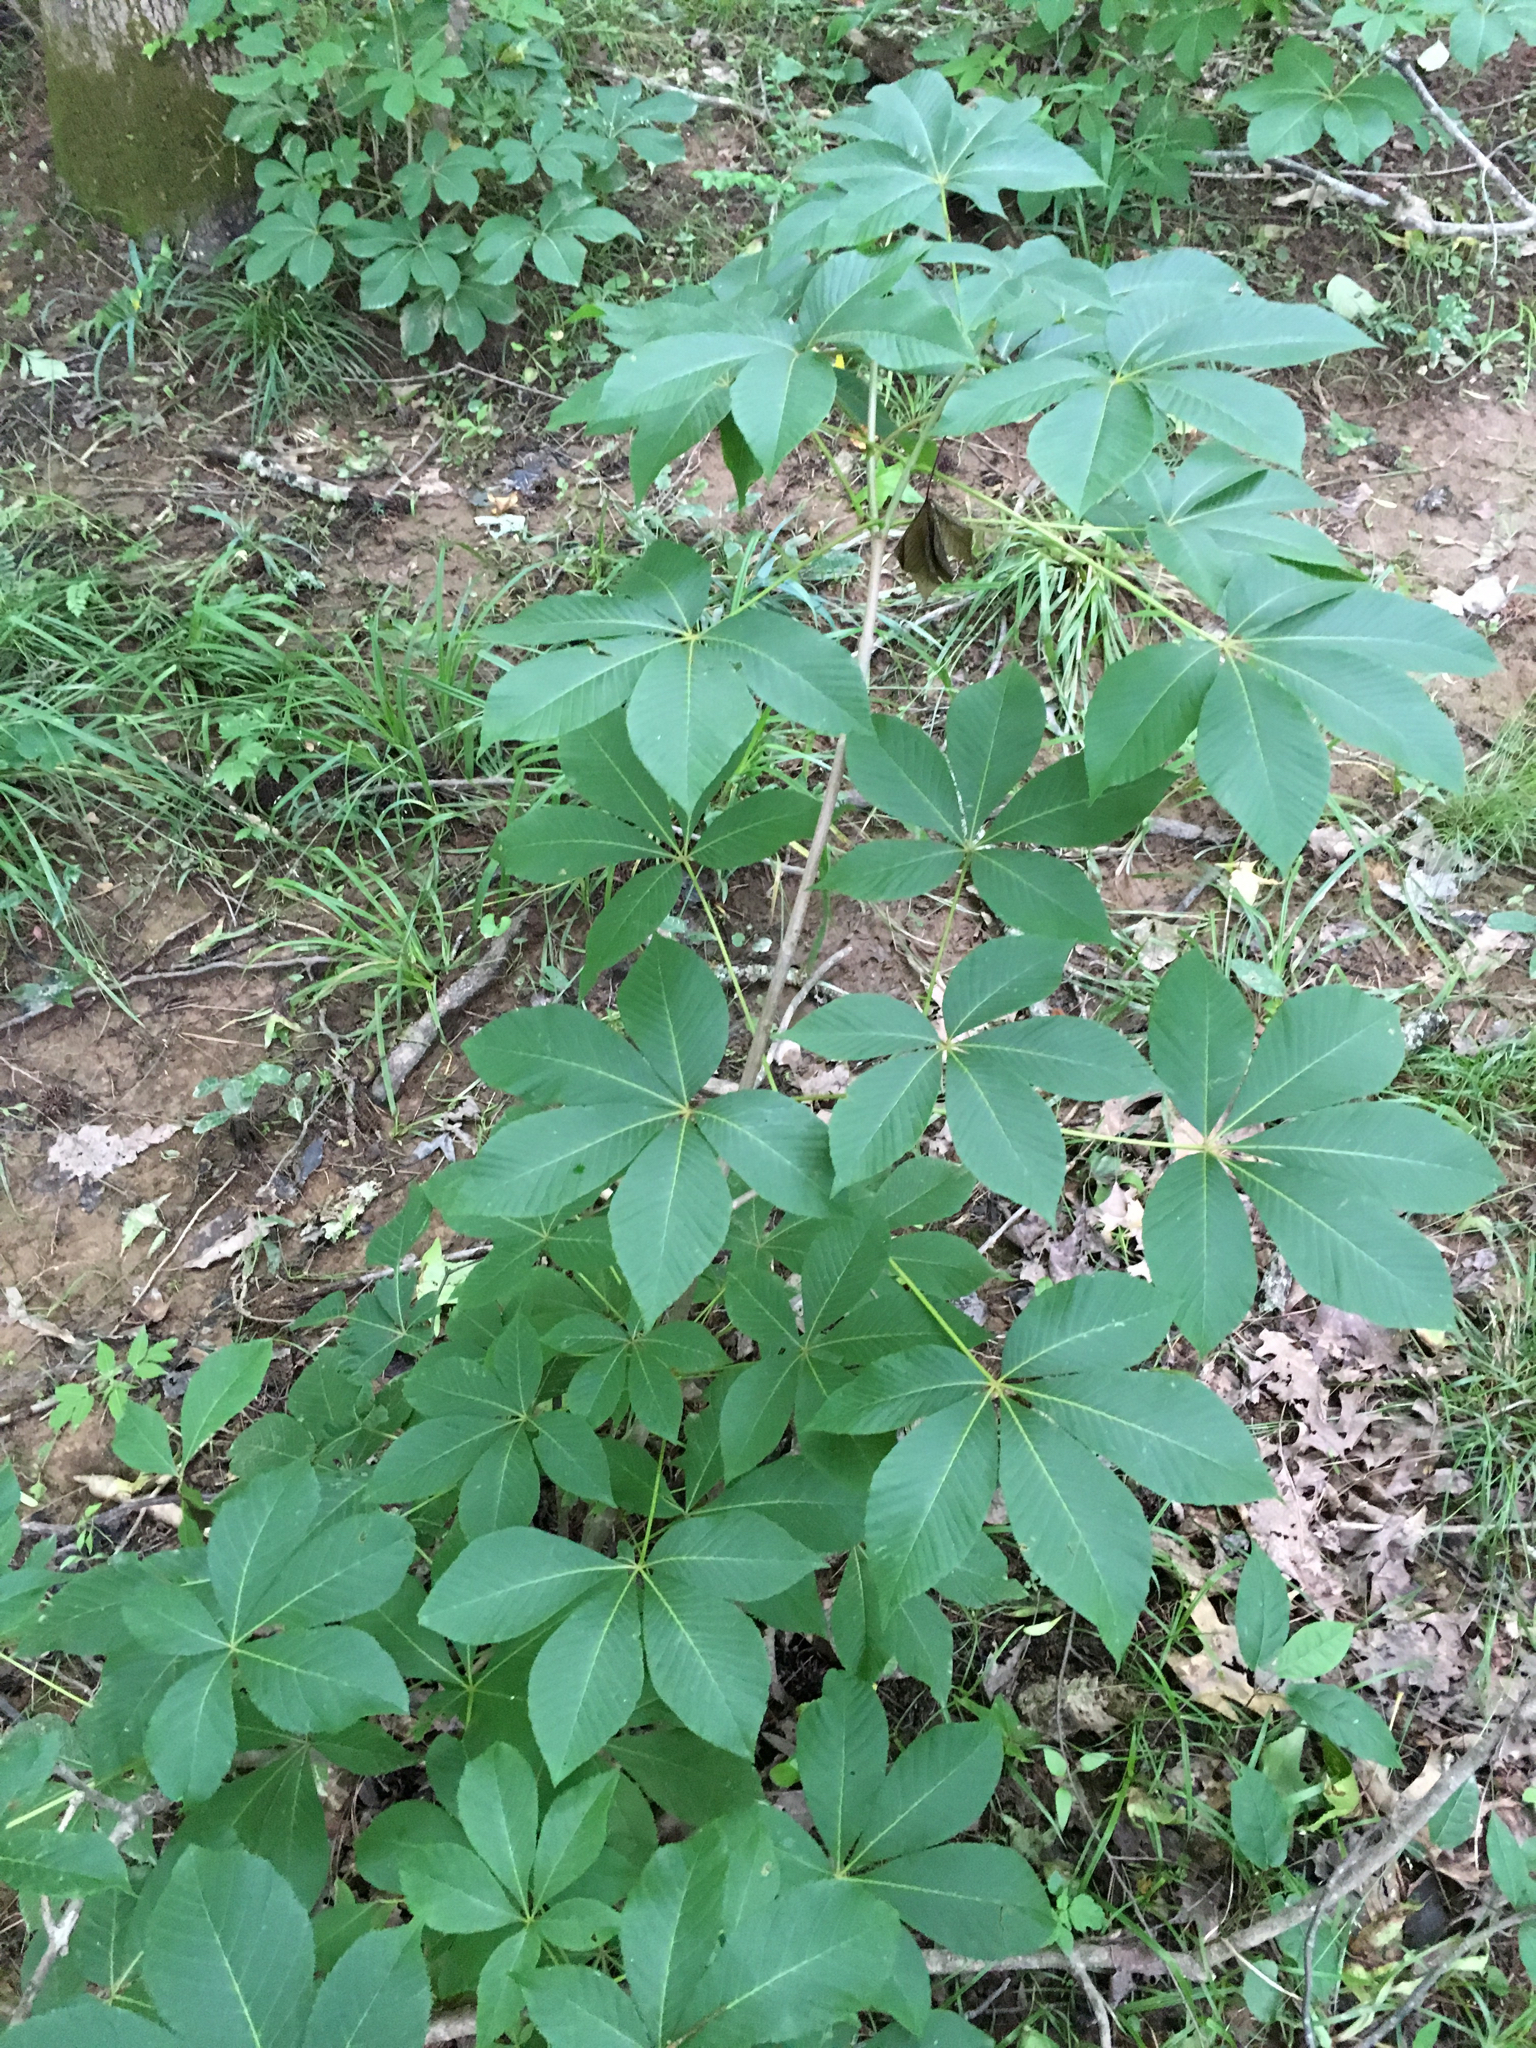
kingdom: Plantae
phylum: Tracheophyta
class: Magnoliopsida
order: Sapindales
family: Sapindaceae
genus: Aesculus
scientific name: Aesculus sylvatica
